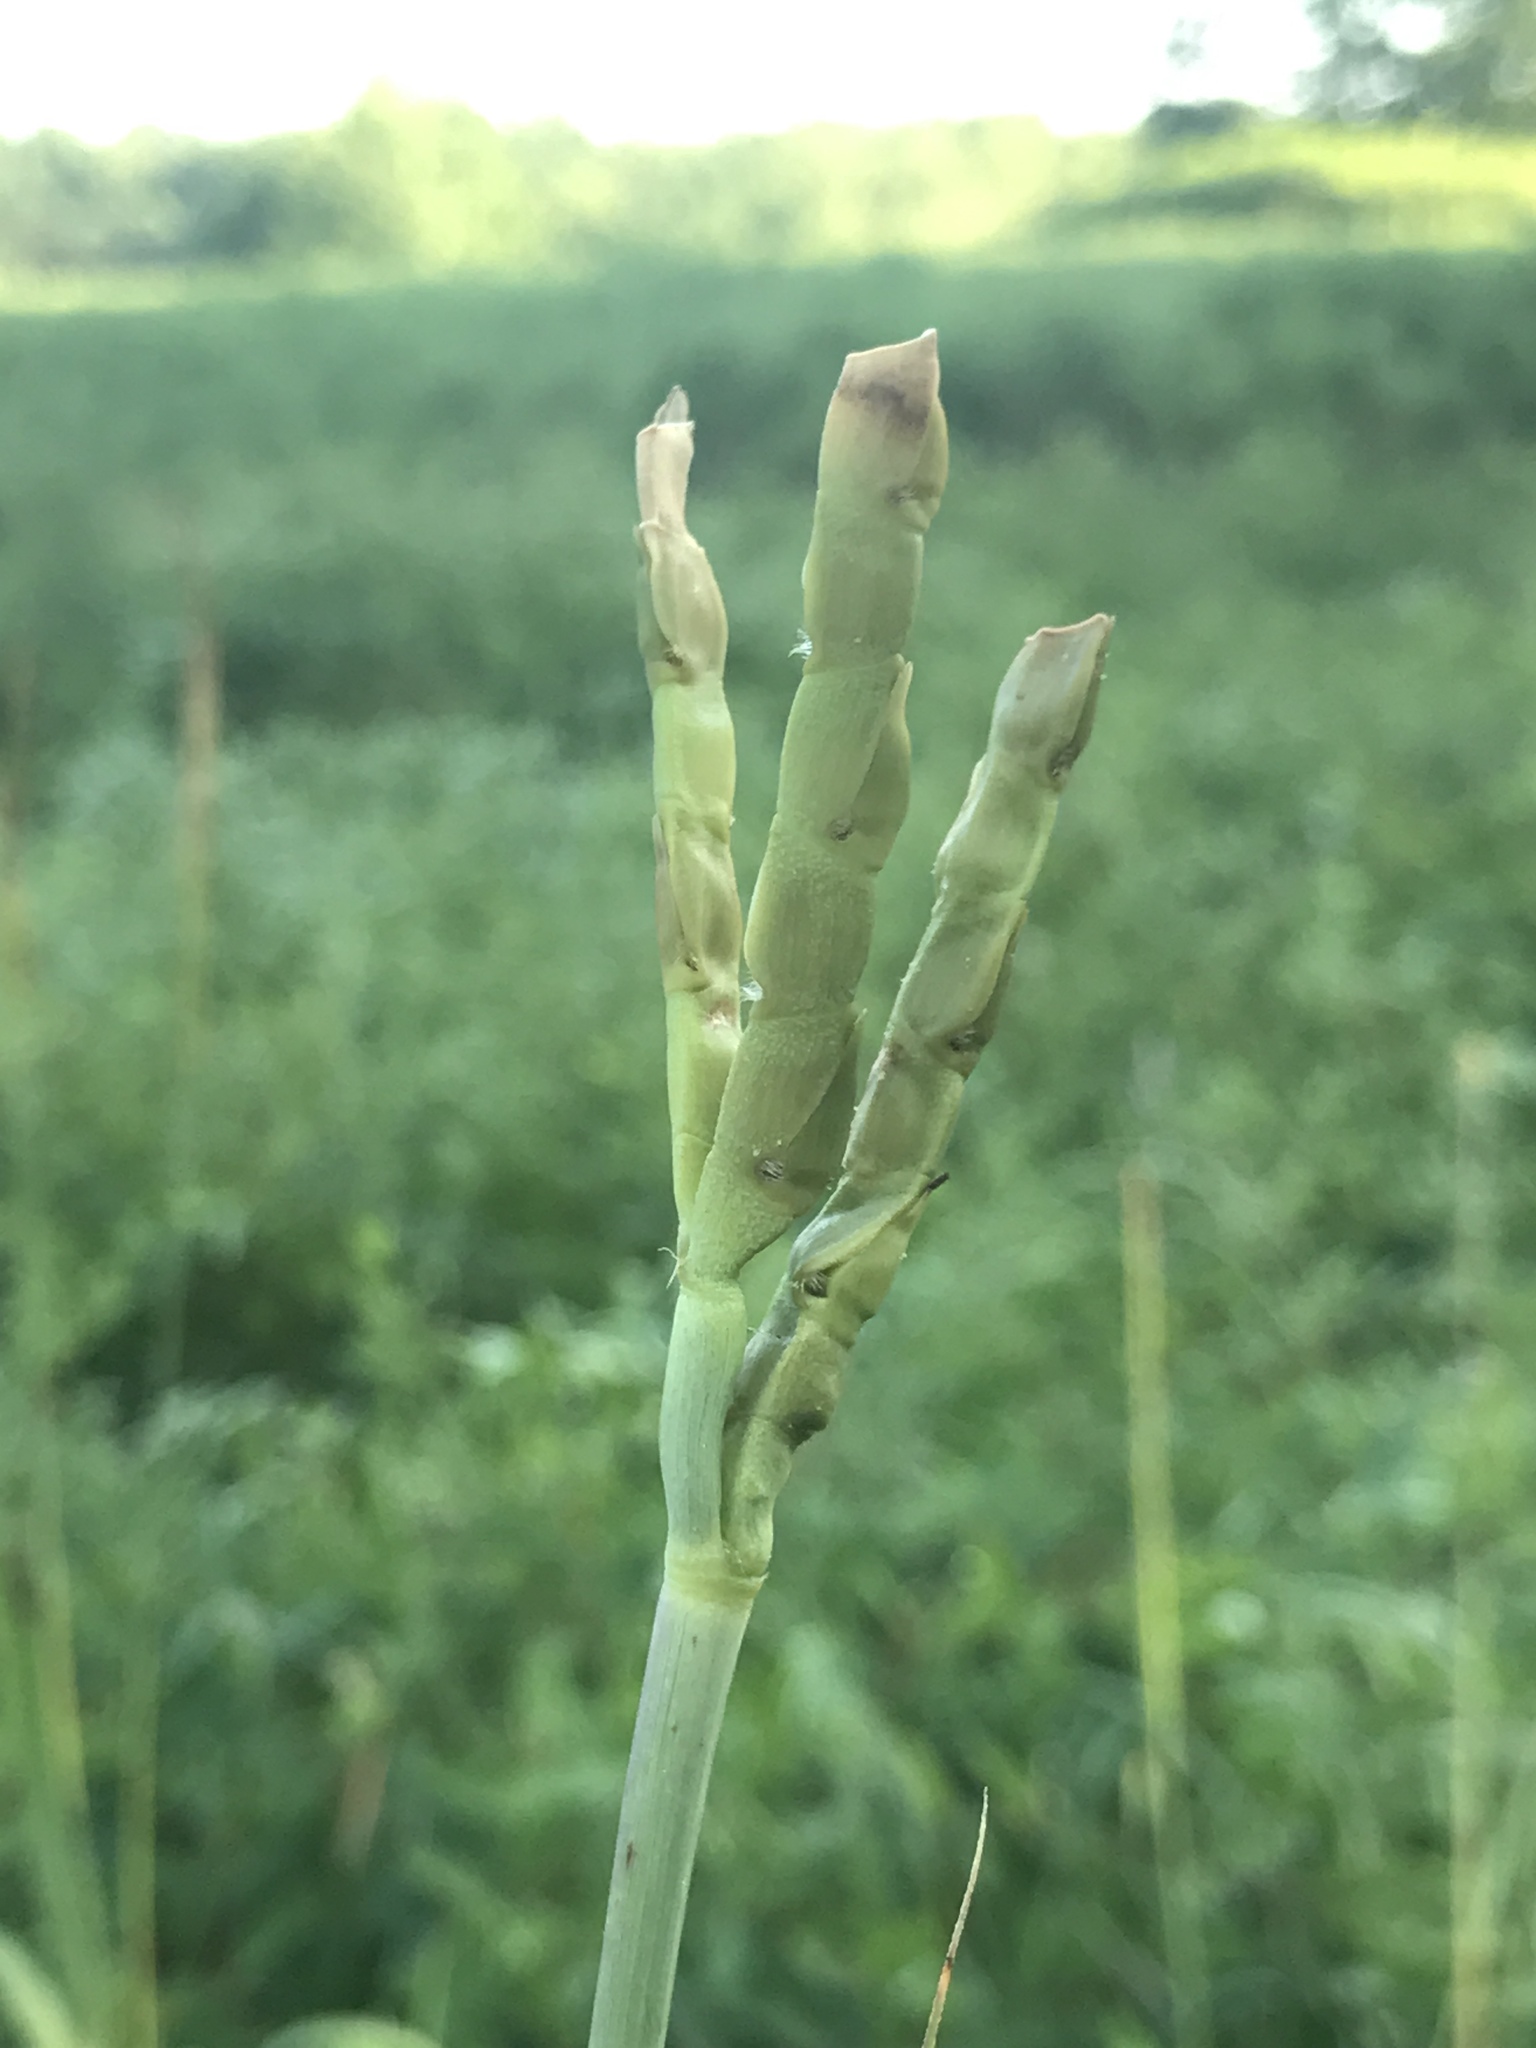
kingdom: Plantae
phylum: Tracheophyta
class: Liliopsida
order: Poales
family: Poaceae
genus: Tripsacum
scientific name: Tripsacum dactyloides
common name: Buffalo-grass
